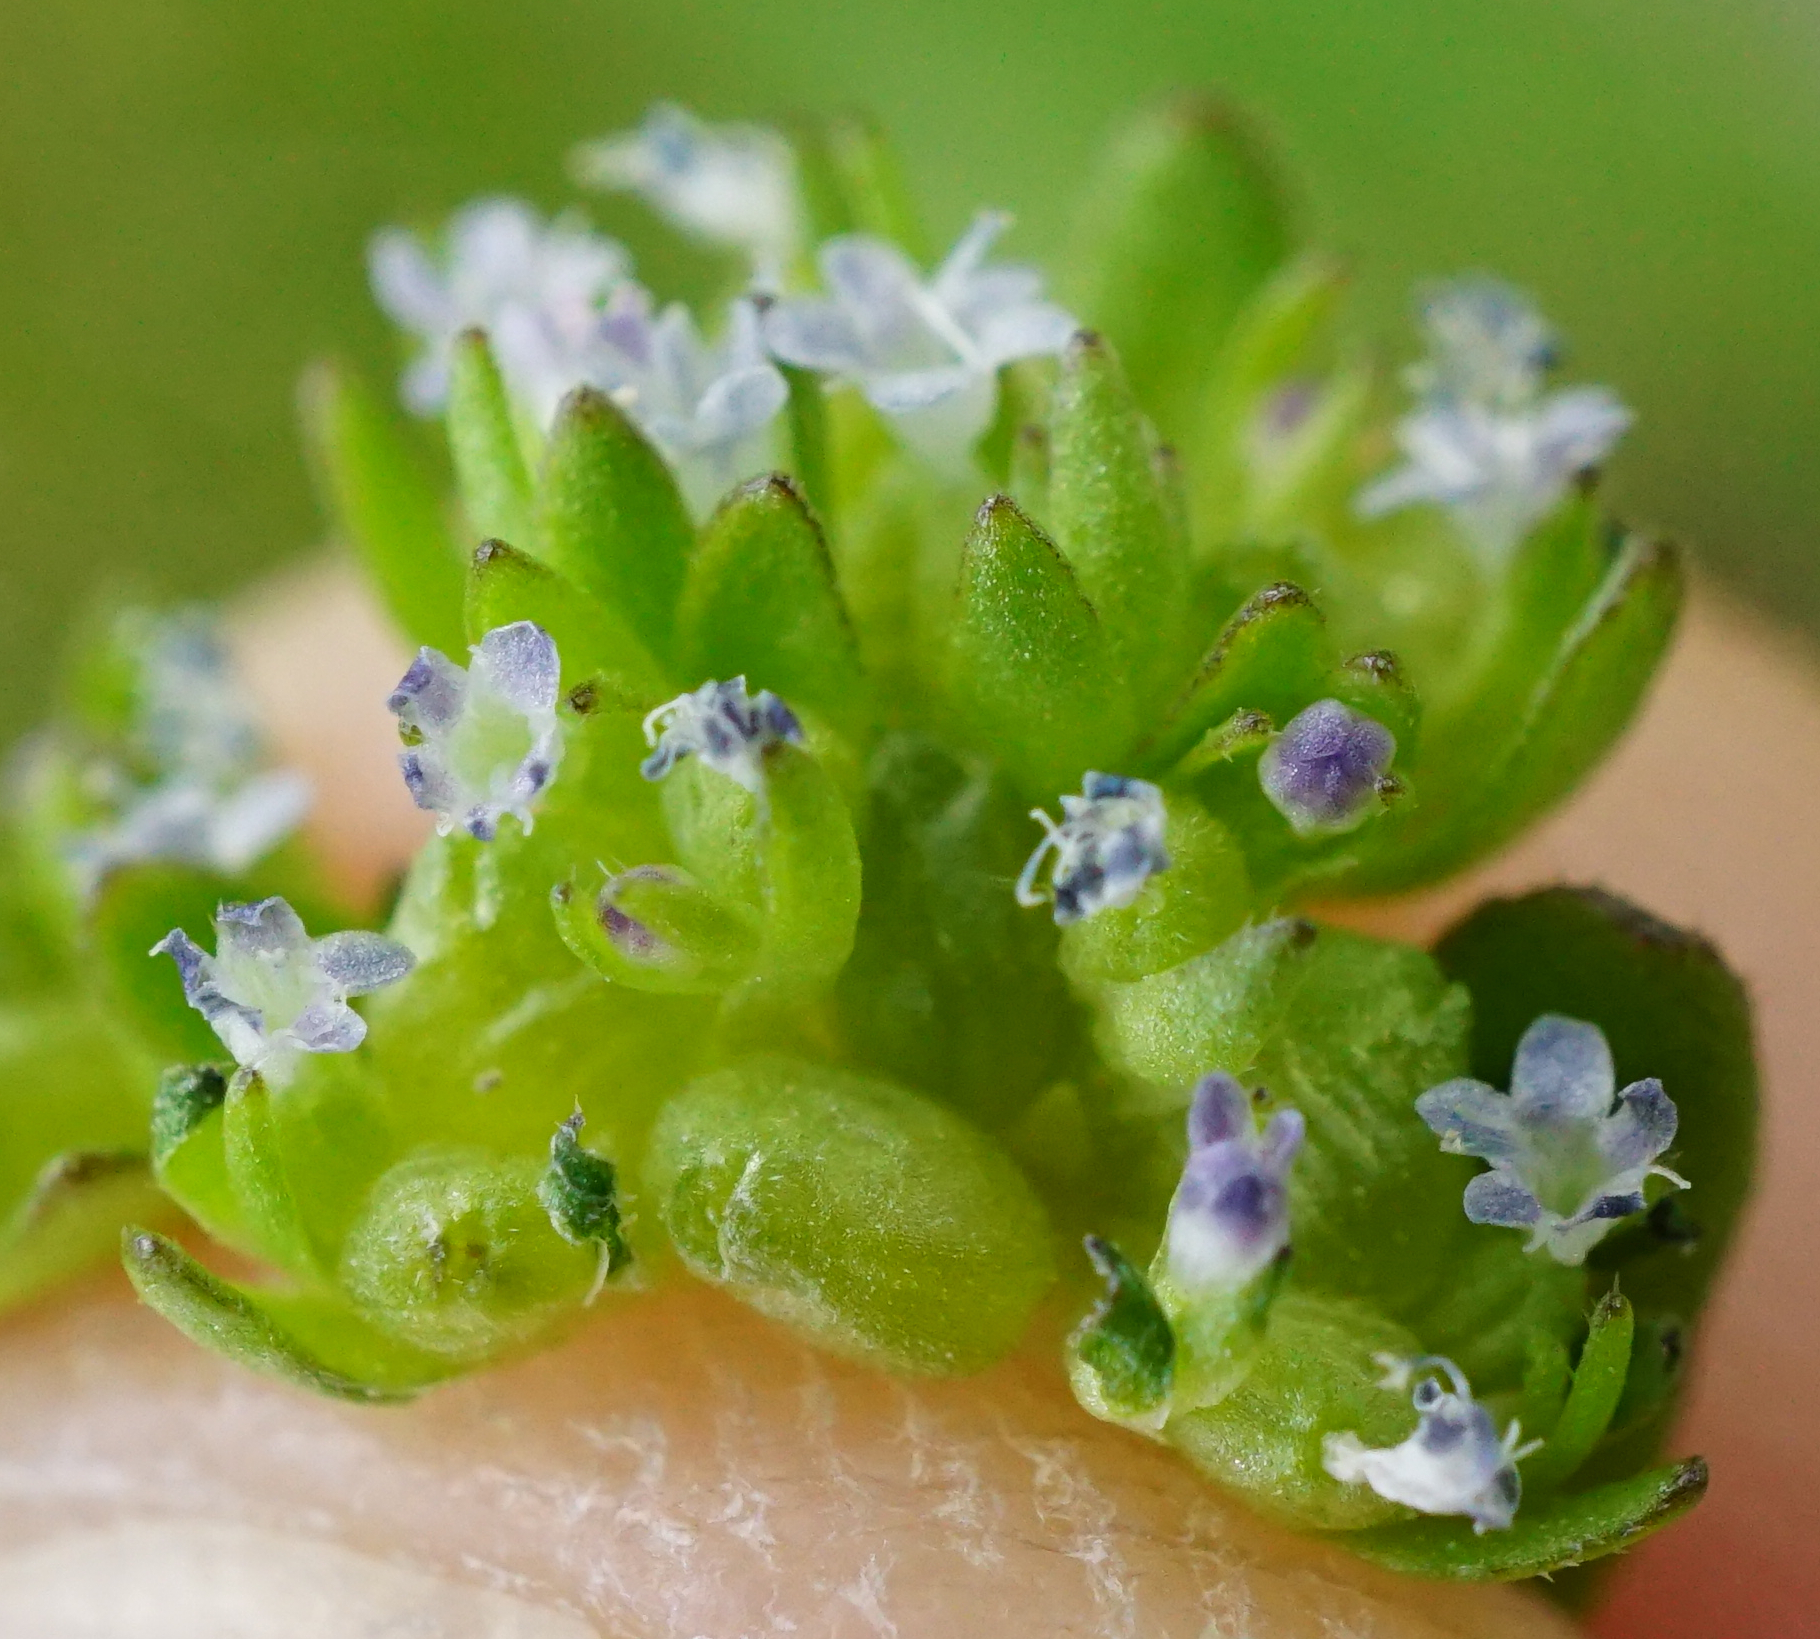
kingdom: Plantae
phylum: Tracheophyta
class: Magnoliopsida
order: Dipsacales
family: Caprifoliaceae
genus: Valerianella
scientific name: Valerianella locusta
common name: Common cornsalad
